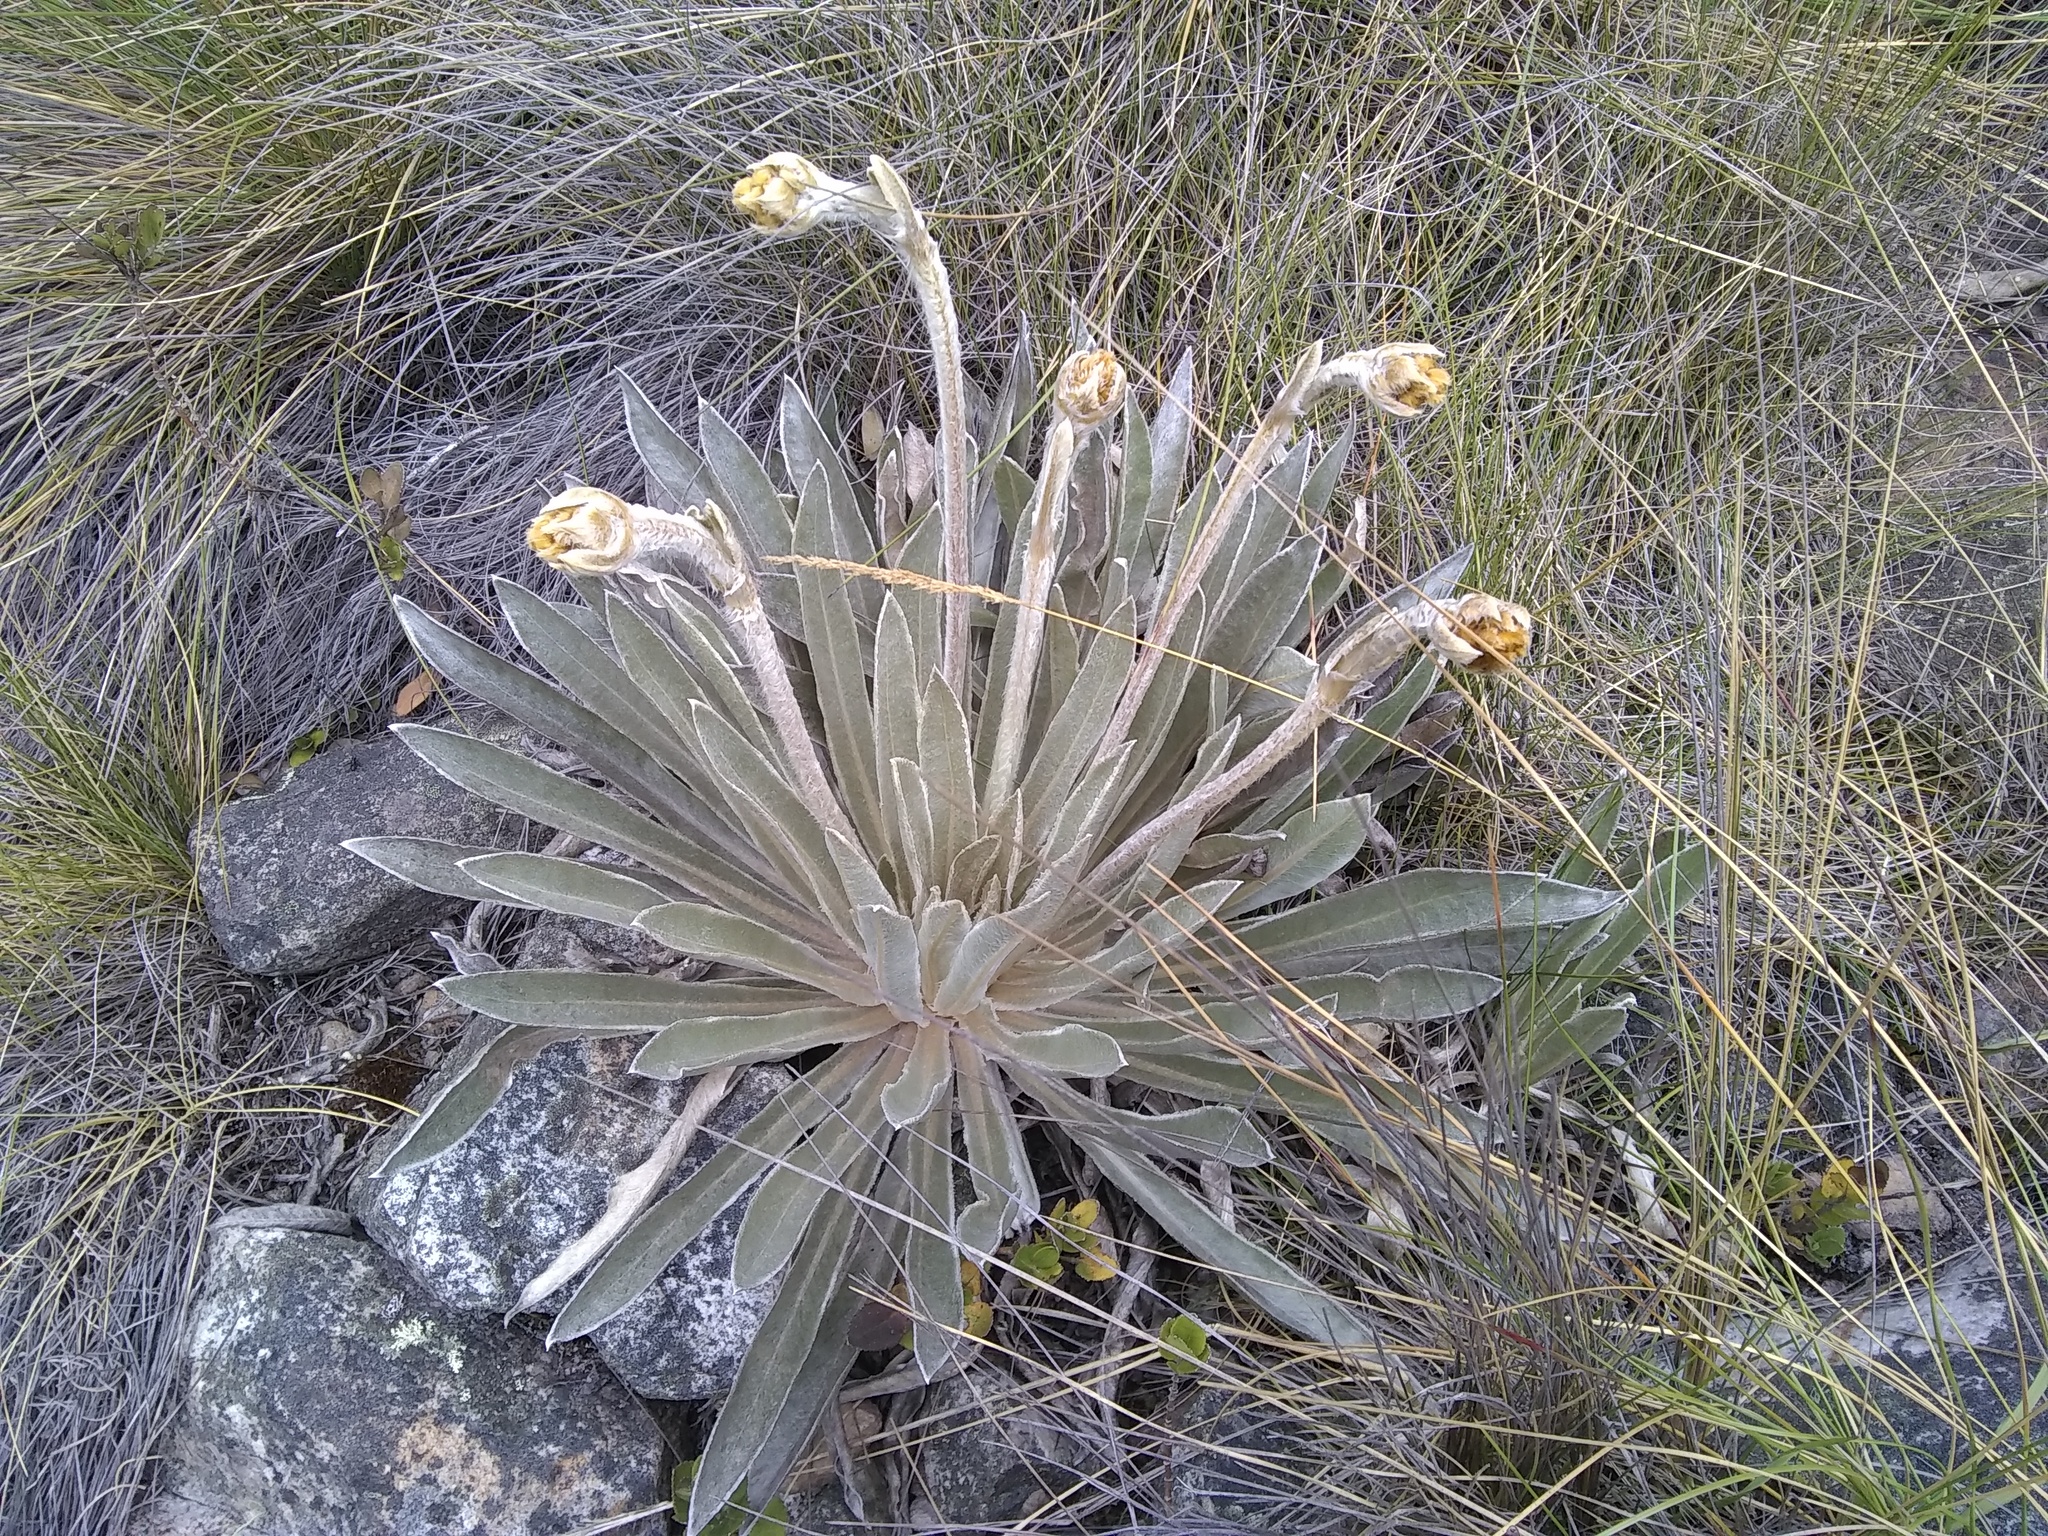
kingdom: Plantae
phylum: Tracheophyta
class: Magnoliopsida
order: Asterales
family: Asteraceae
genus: Espeletia
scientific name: Espeletia boyacensis
